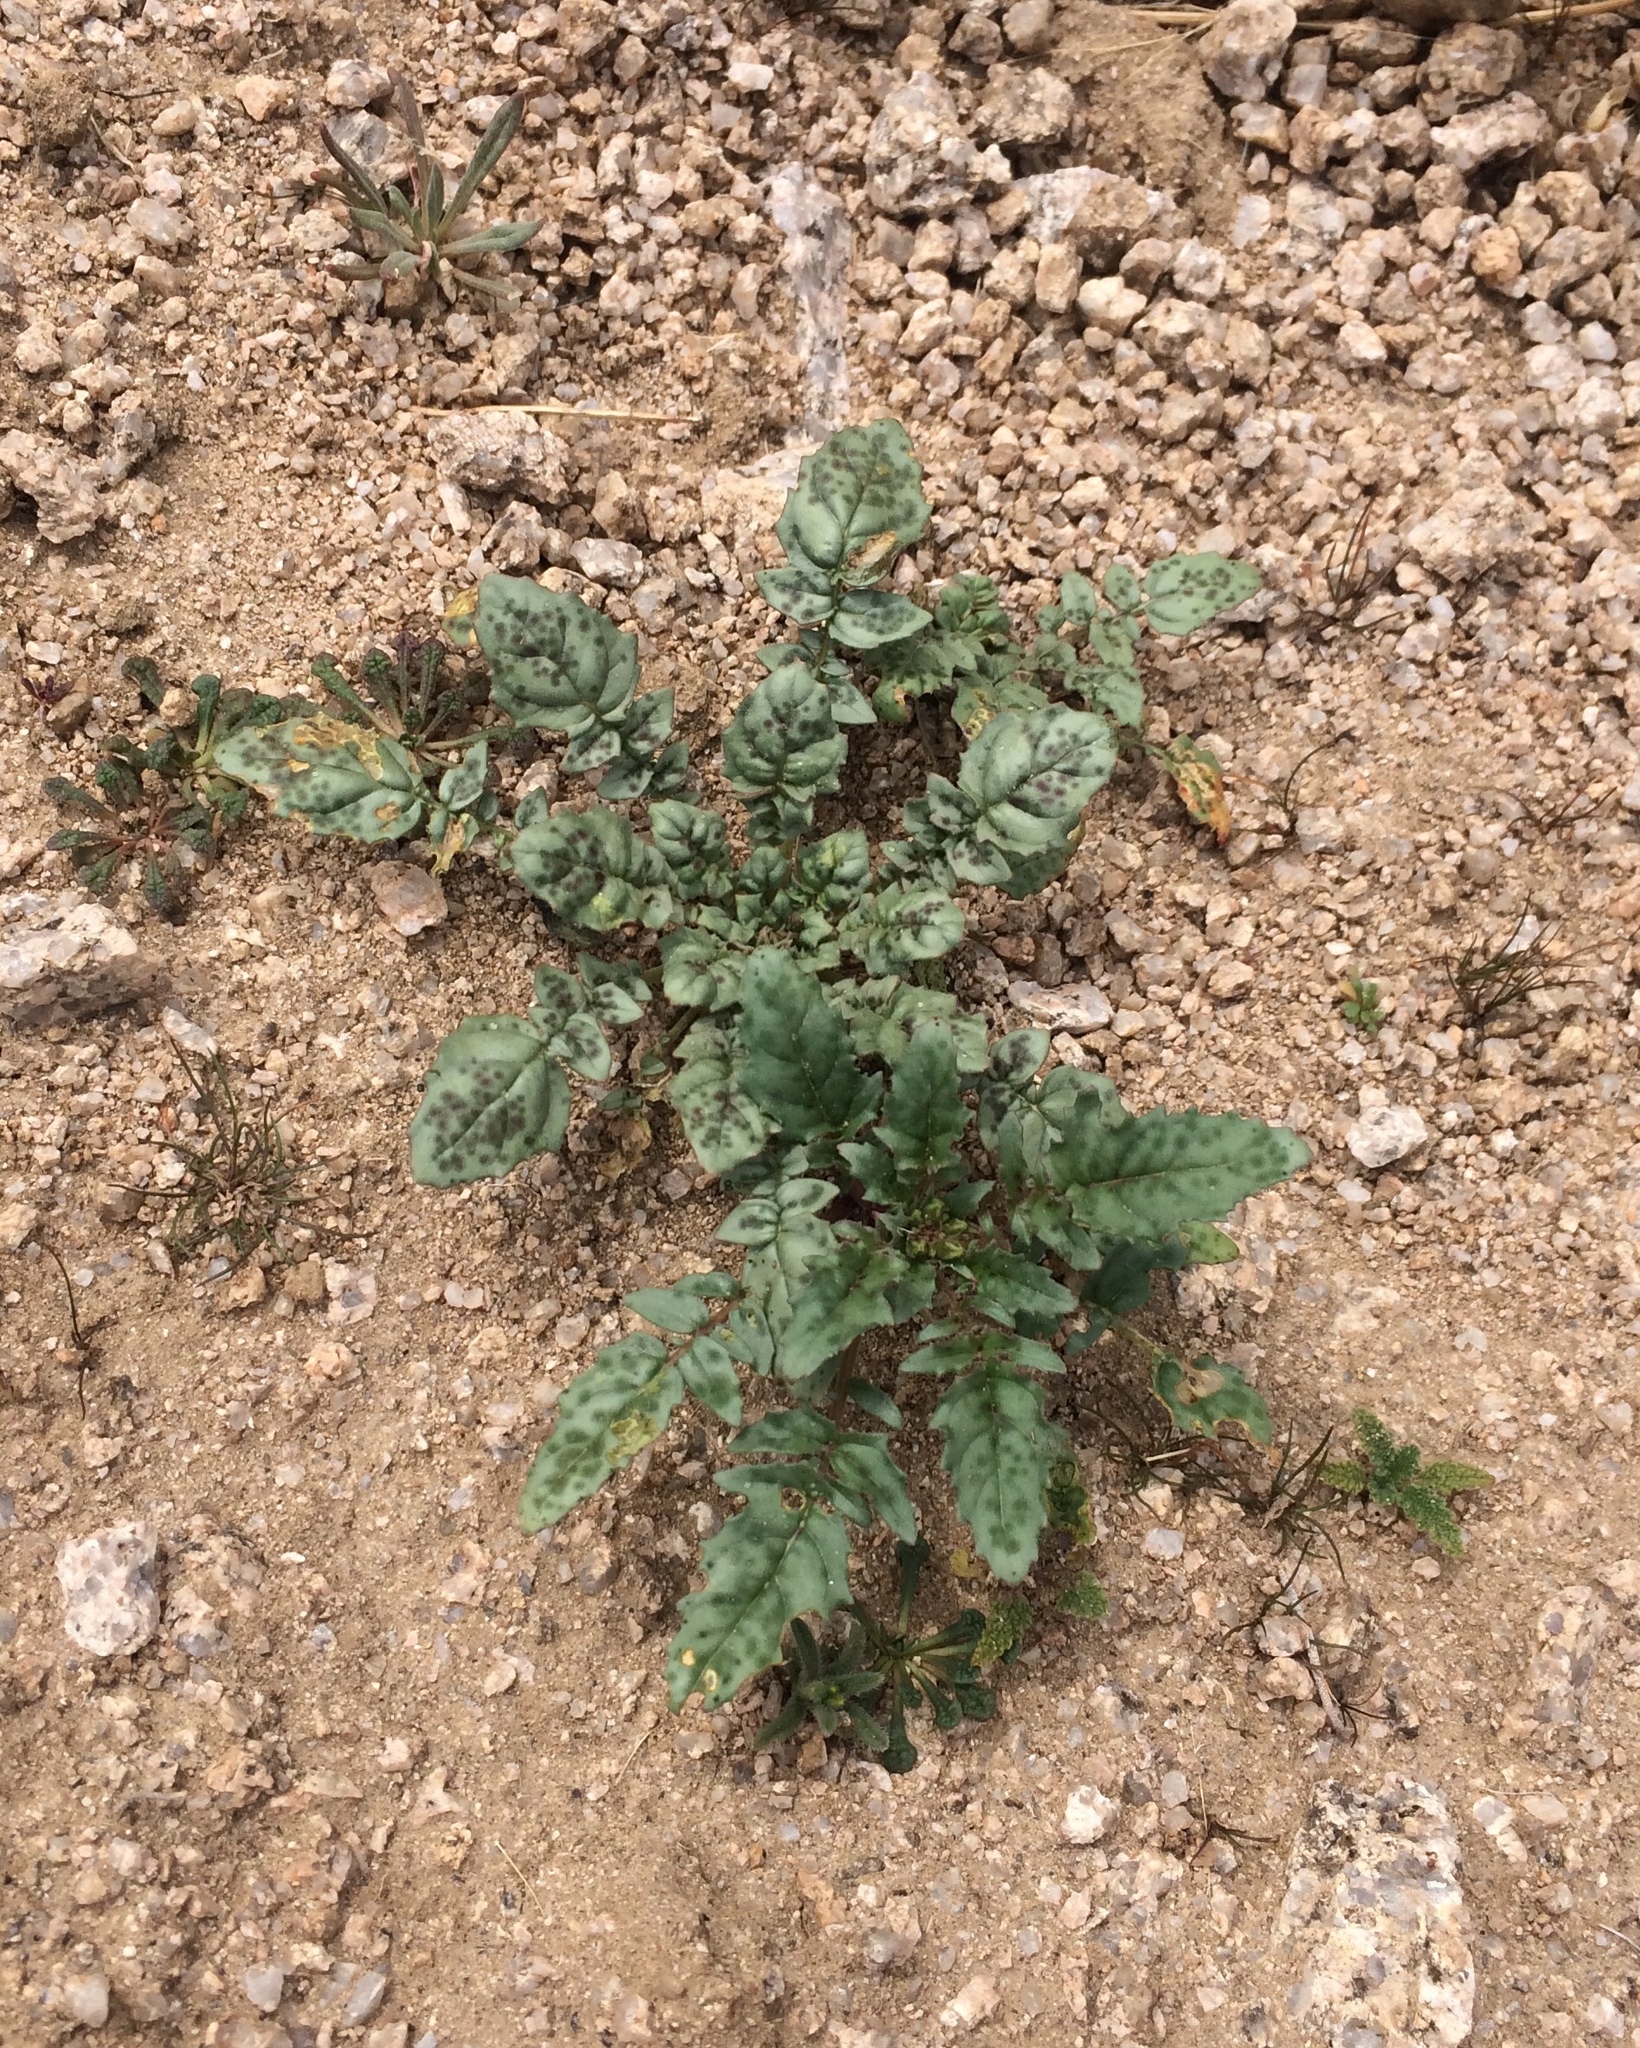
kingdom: Plantae
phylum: Tracheophyta
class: Magnoliopsida
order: Myrtales
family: Onagraceae
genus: Chylismia
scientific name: Chylismia claviformis
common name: Browneyes
